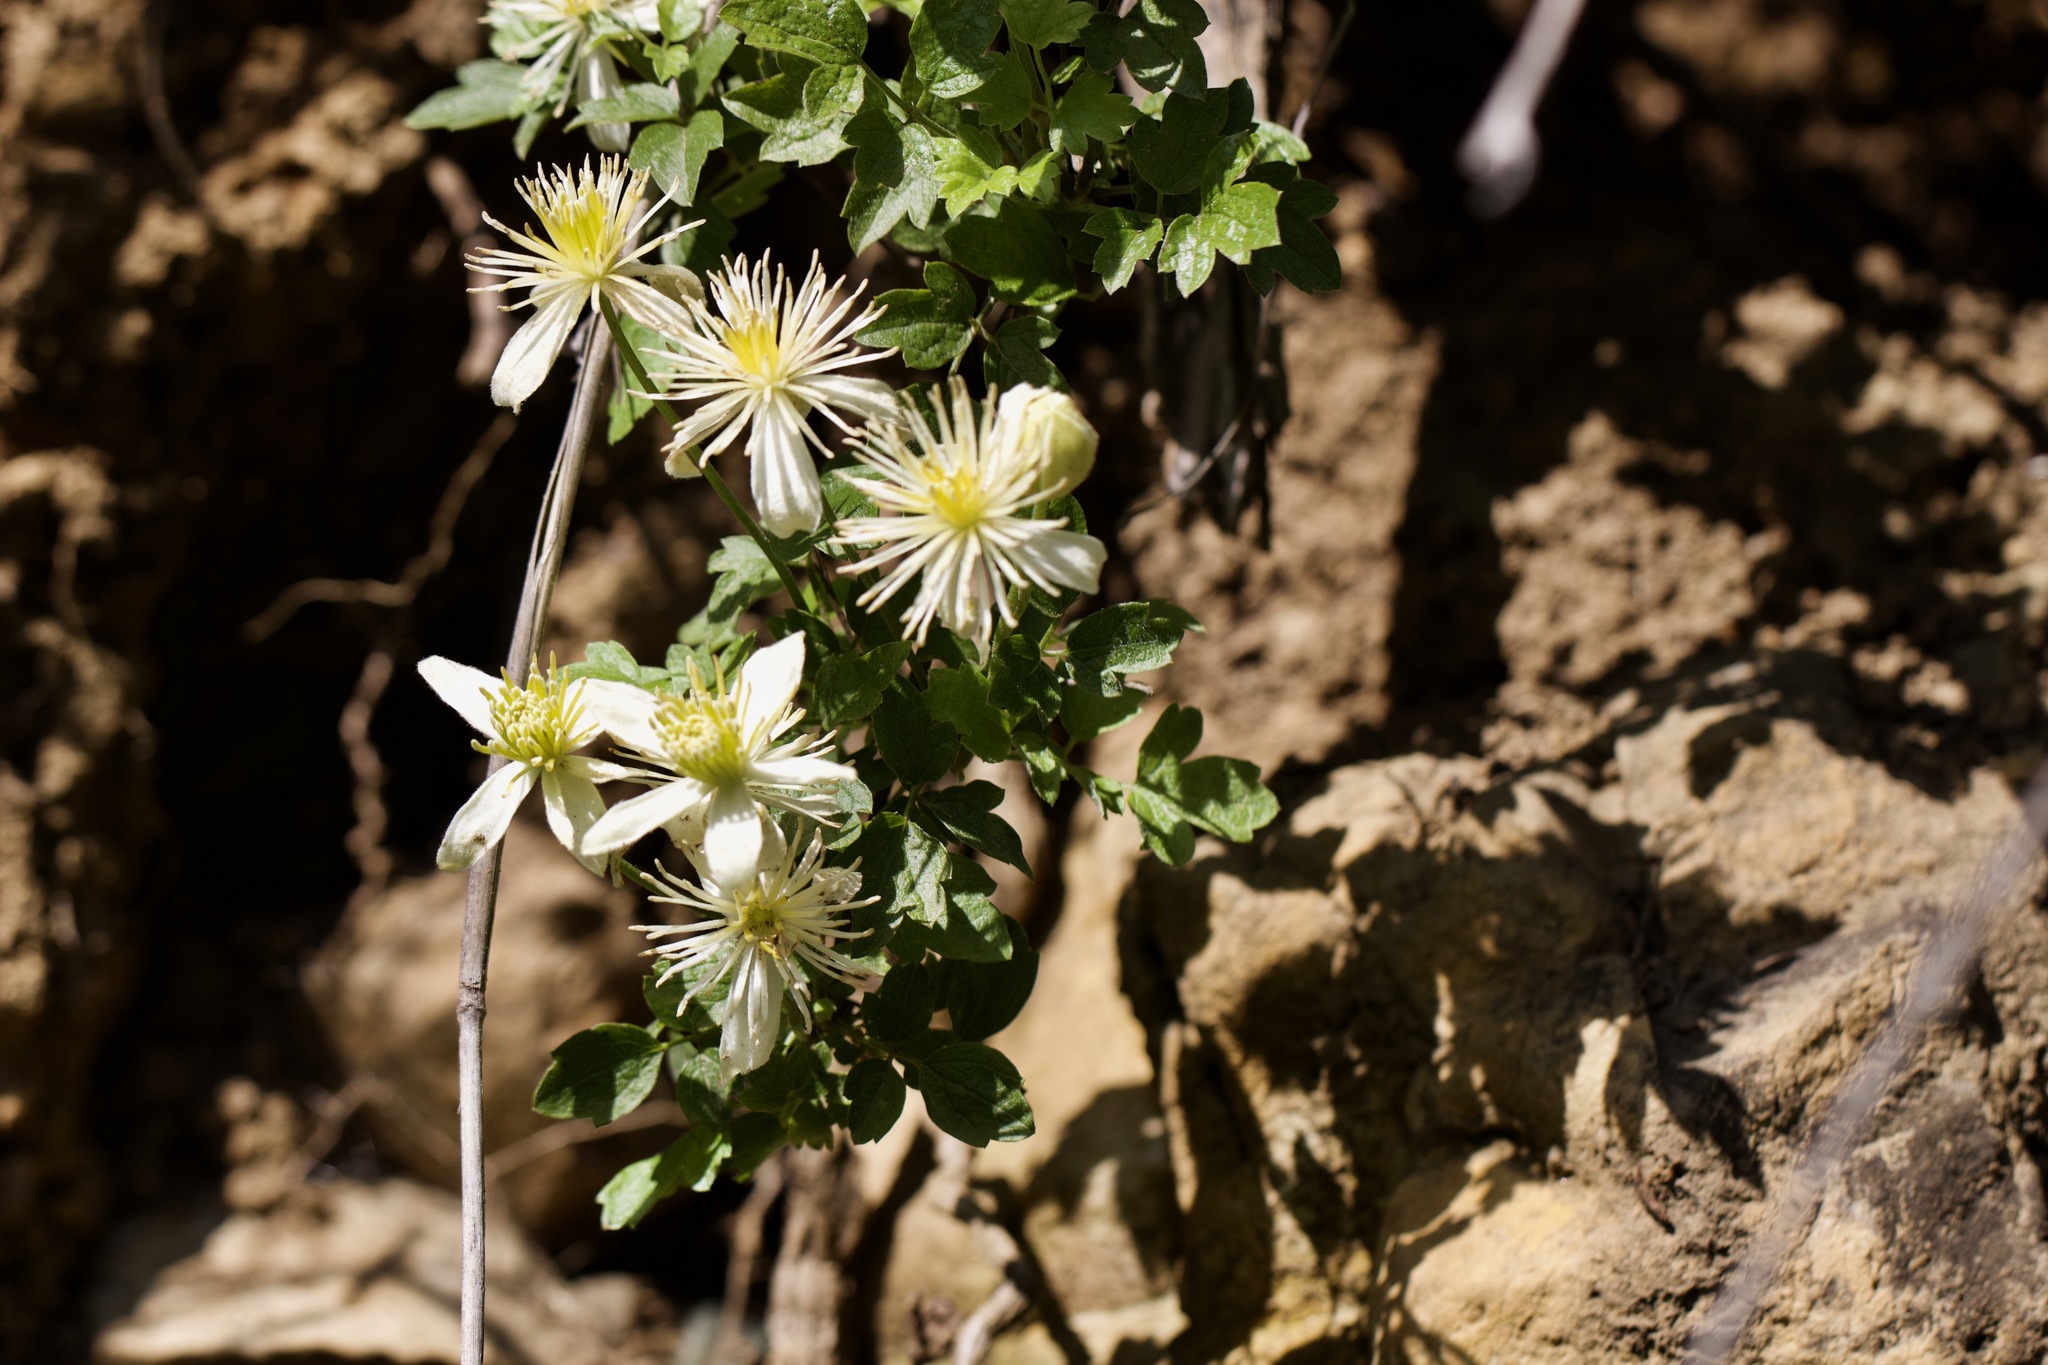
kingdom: Plantae
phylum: Tracheophyta
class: Magnoliopsida
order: Ranunculales
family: Ranunculaceae
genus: Clematis
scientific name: Clematis lasiantha
